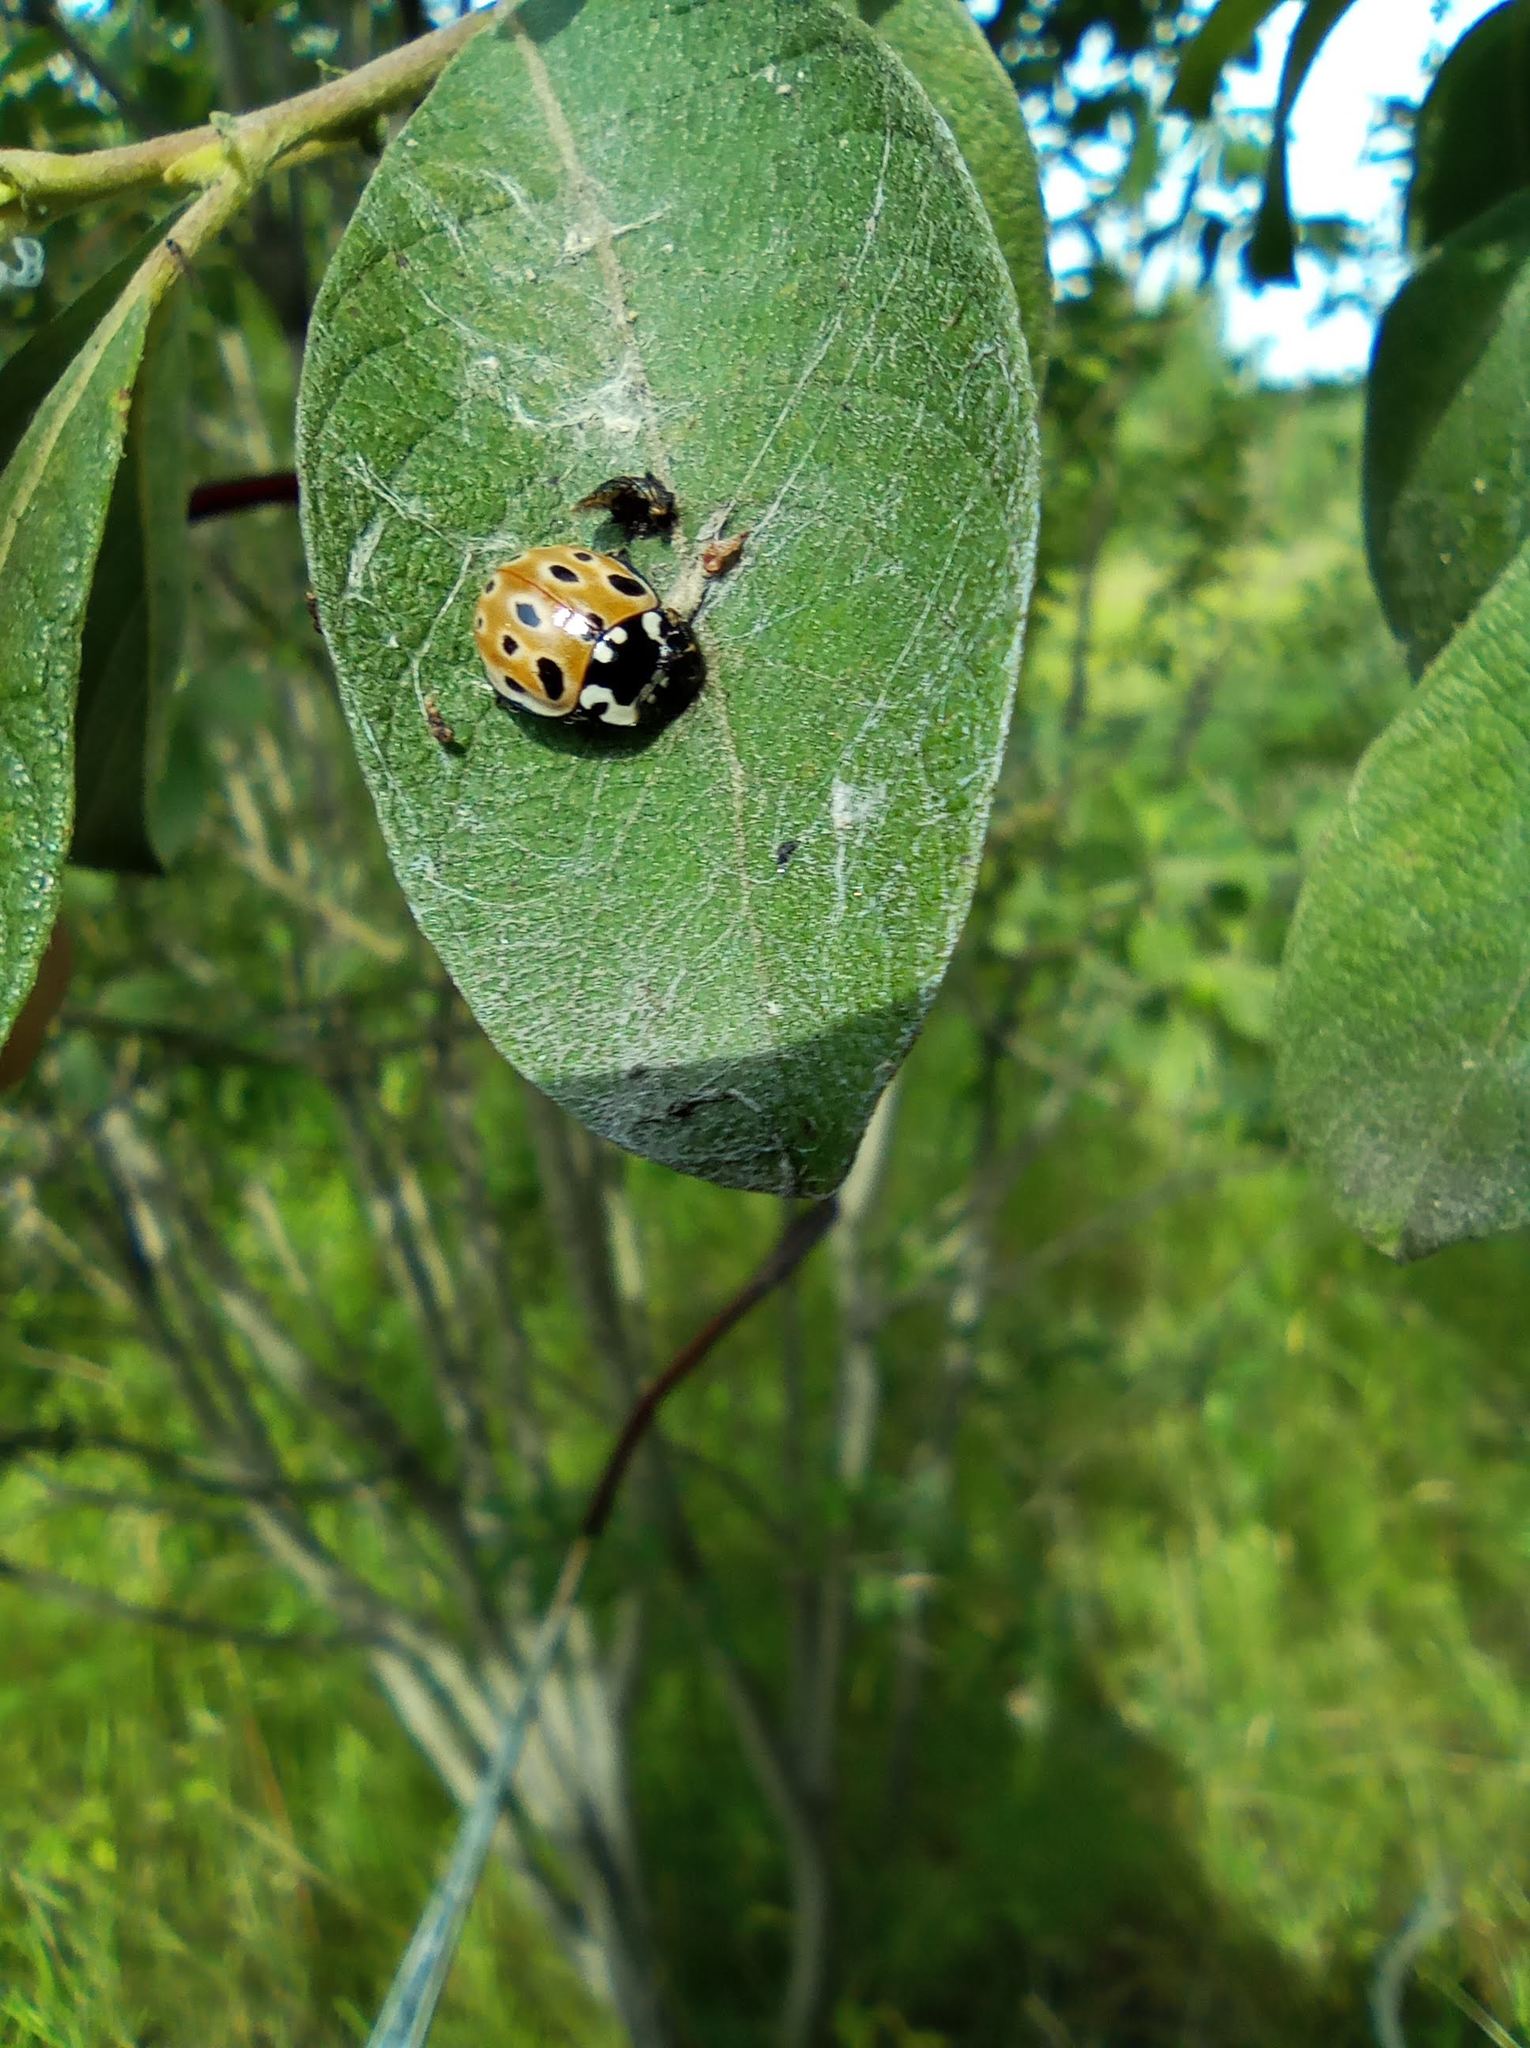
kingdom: Animalia
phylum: Arthropoda
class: Insecta
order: Coleoptera
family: Coccinellidae
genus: Anatis
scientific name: Anatis ocellata
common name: Eyed ladybird
